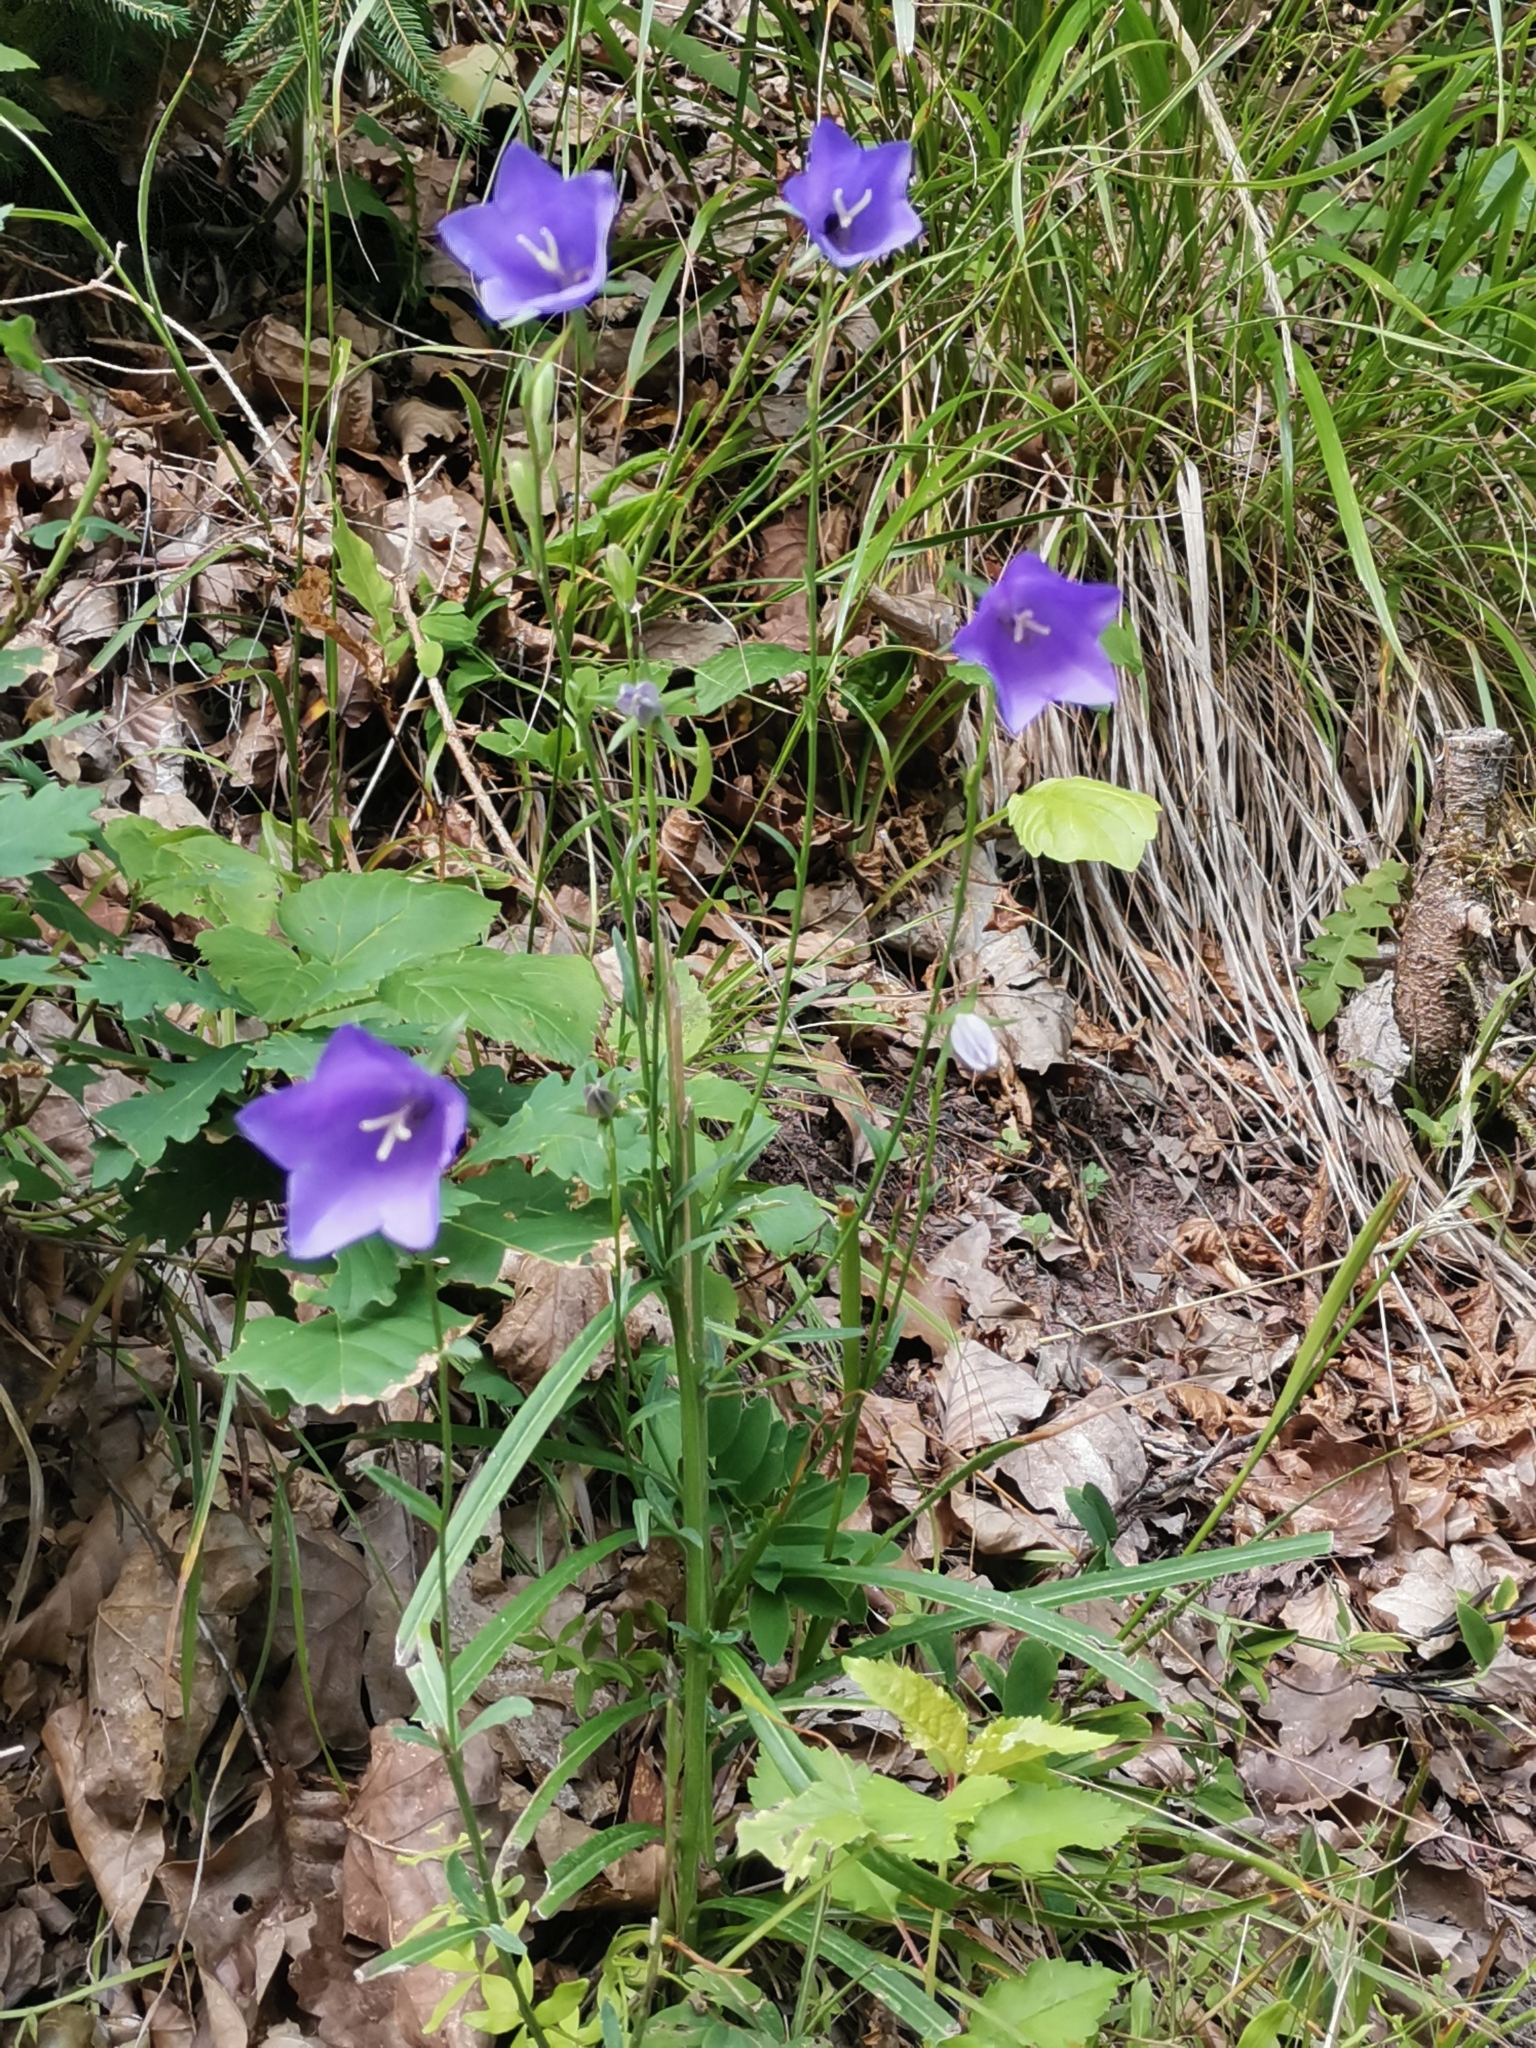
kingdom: Plantae
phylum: Tracheophyta
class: Magnoliopsida
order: Asterales
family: Campanulaceae
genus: Campanula
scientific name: Campanula persicifolia
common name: Peach-leaved bellflower
